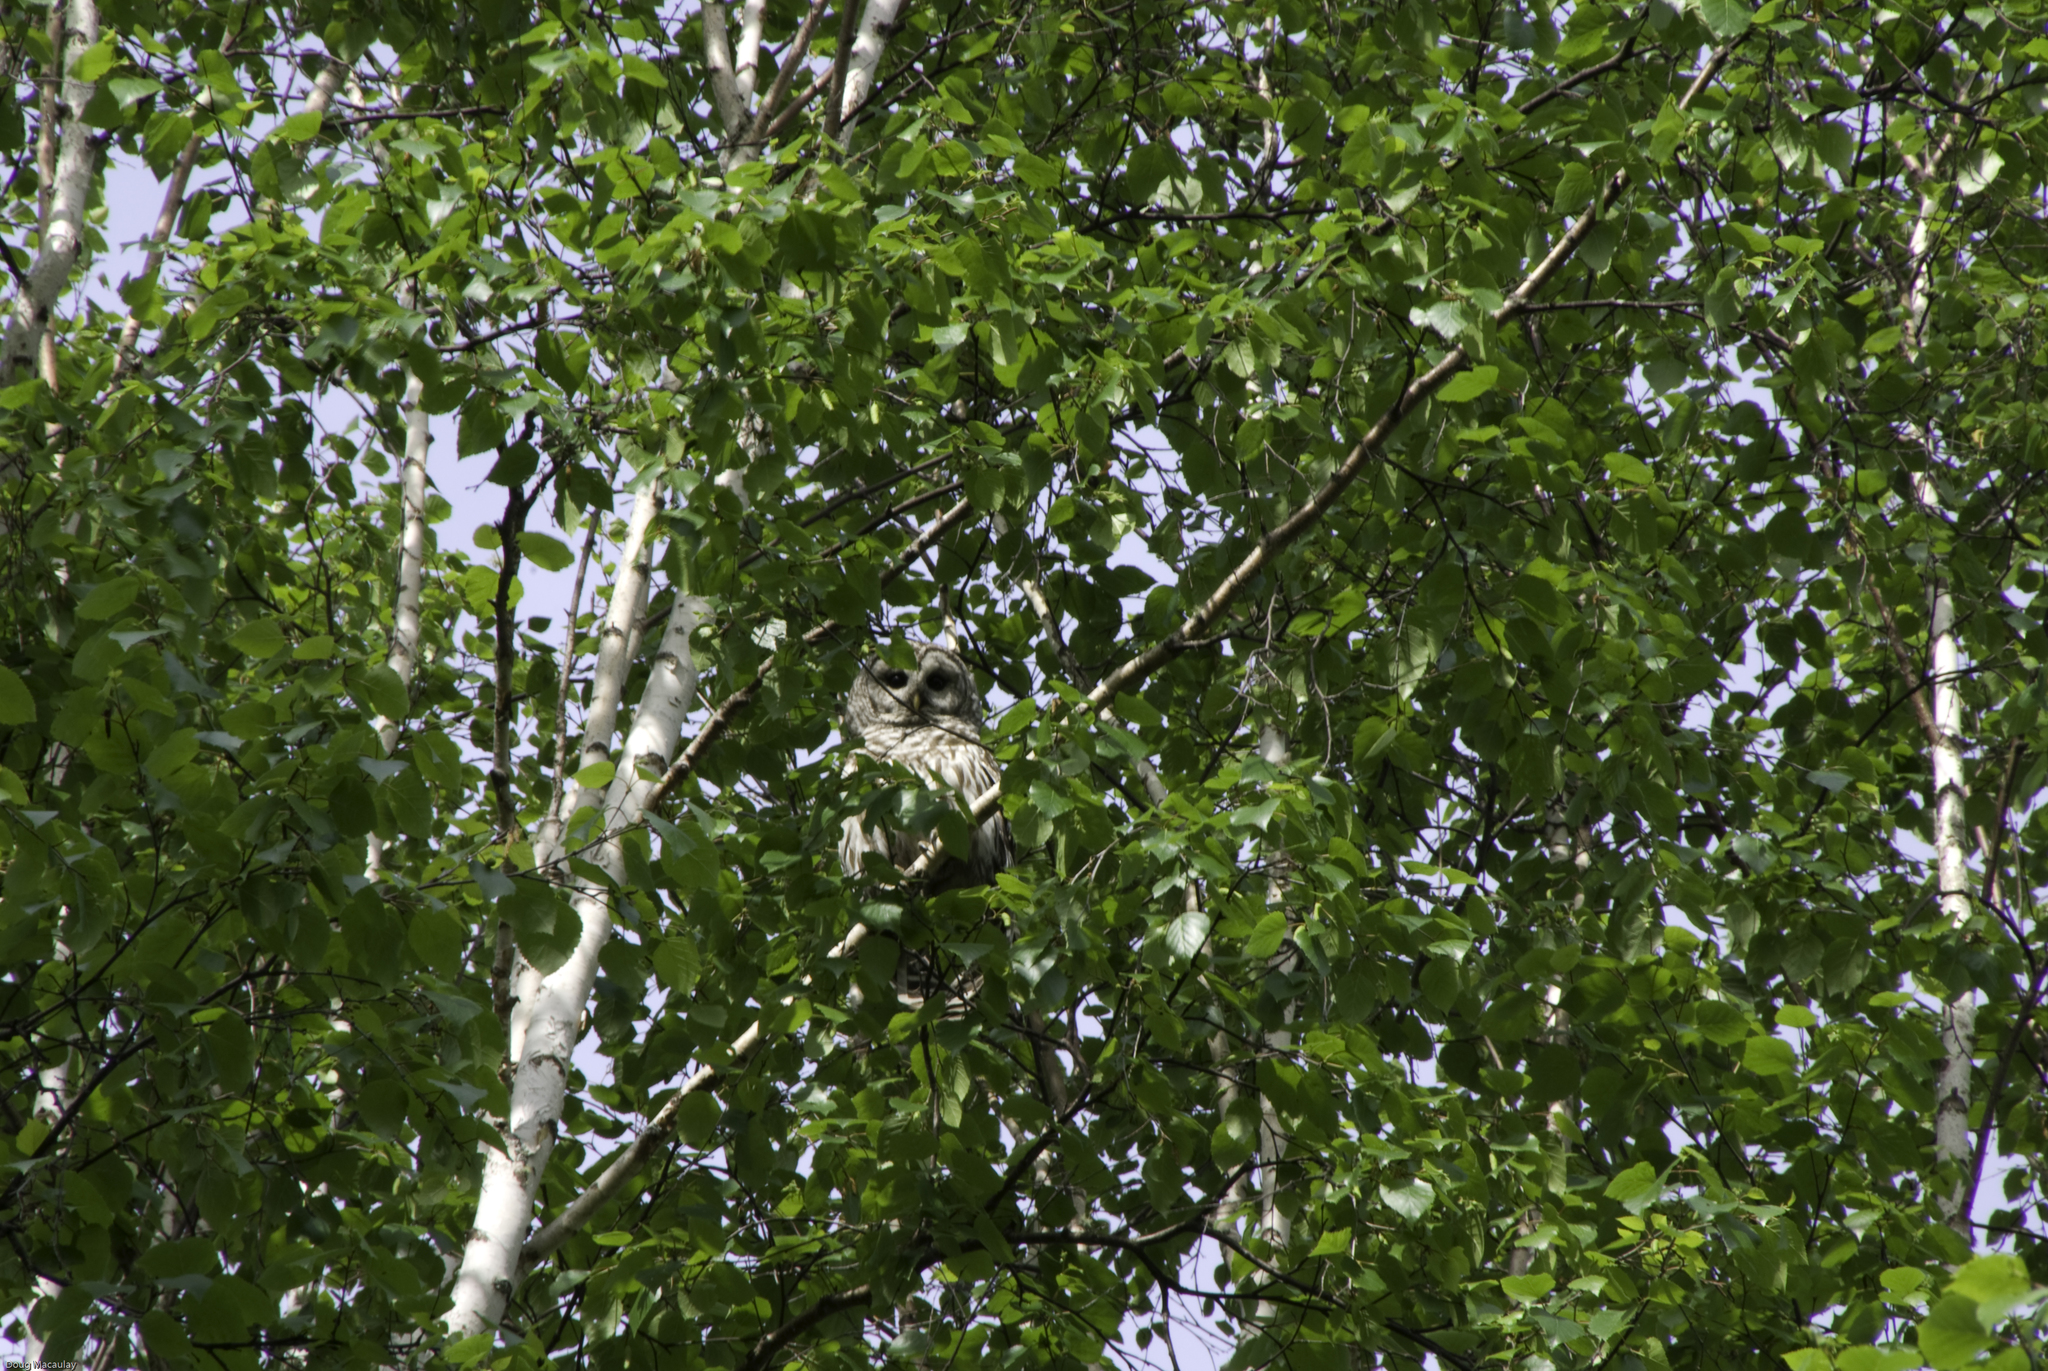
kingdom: Animalia
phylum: Chordata
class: Aves
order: Strigiformes
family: Strigidae
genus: Strix
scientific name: Strix varia
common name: Barred owl
